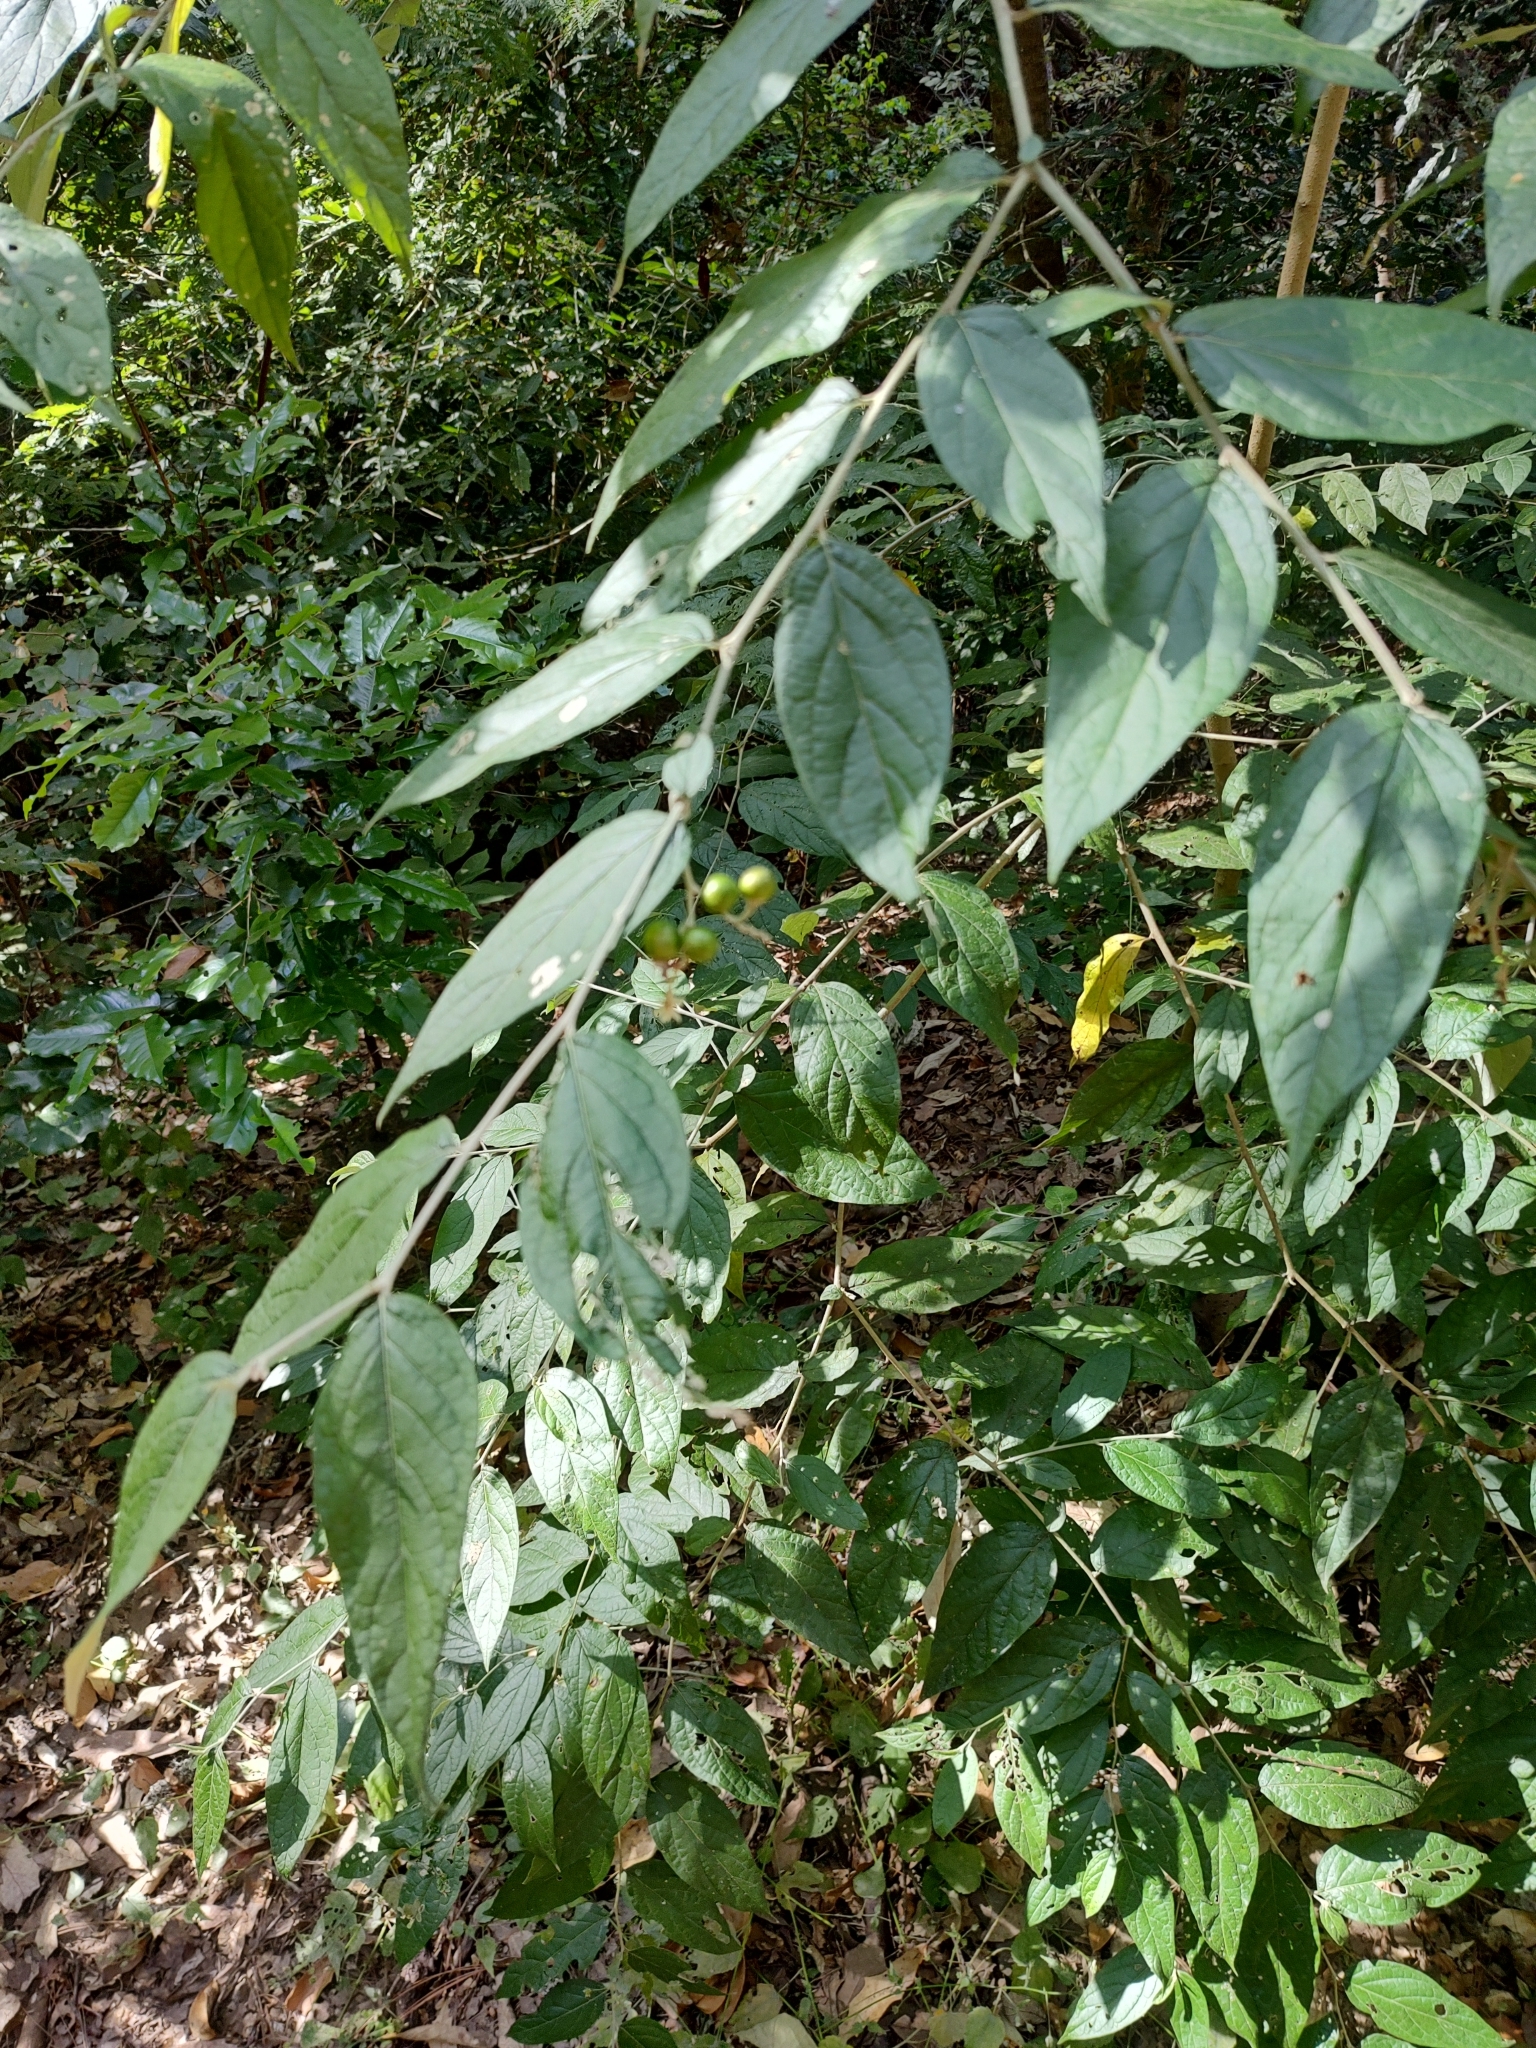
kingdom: Plantae
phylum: Tracheophyta
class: Magnoliopsida
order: Solanales
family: Solanaceae
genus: Solanum
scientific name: Solanum schlechtendalianum
